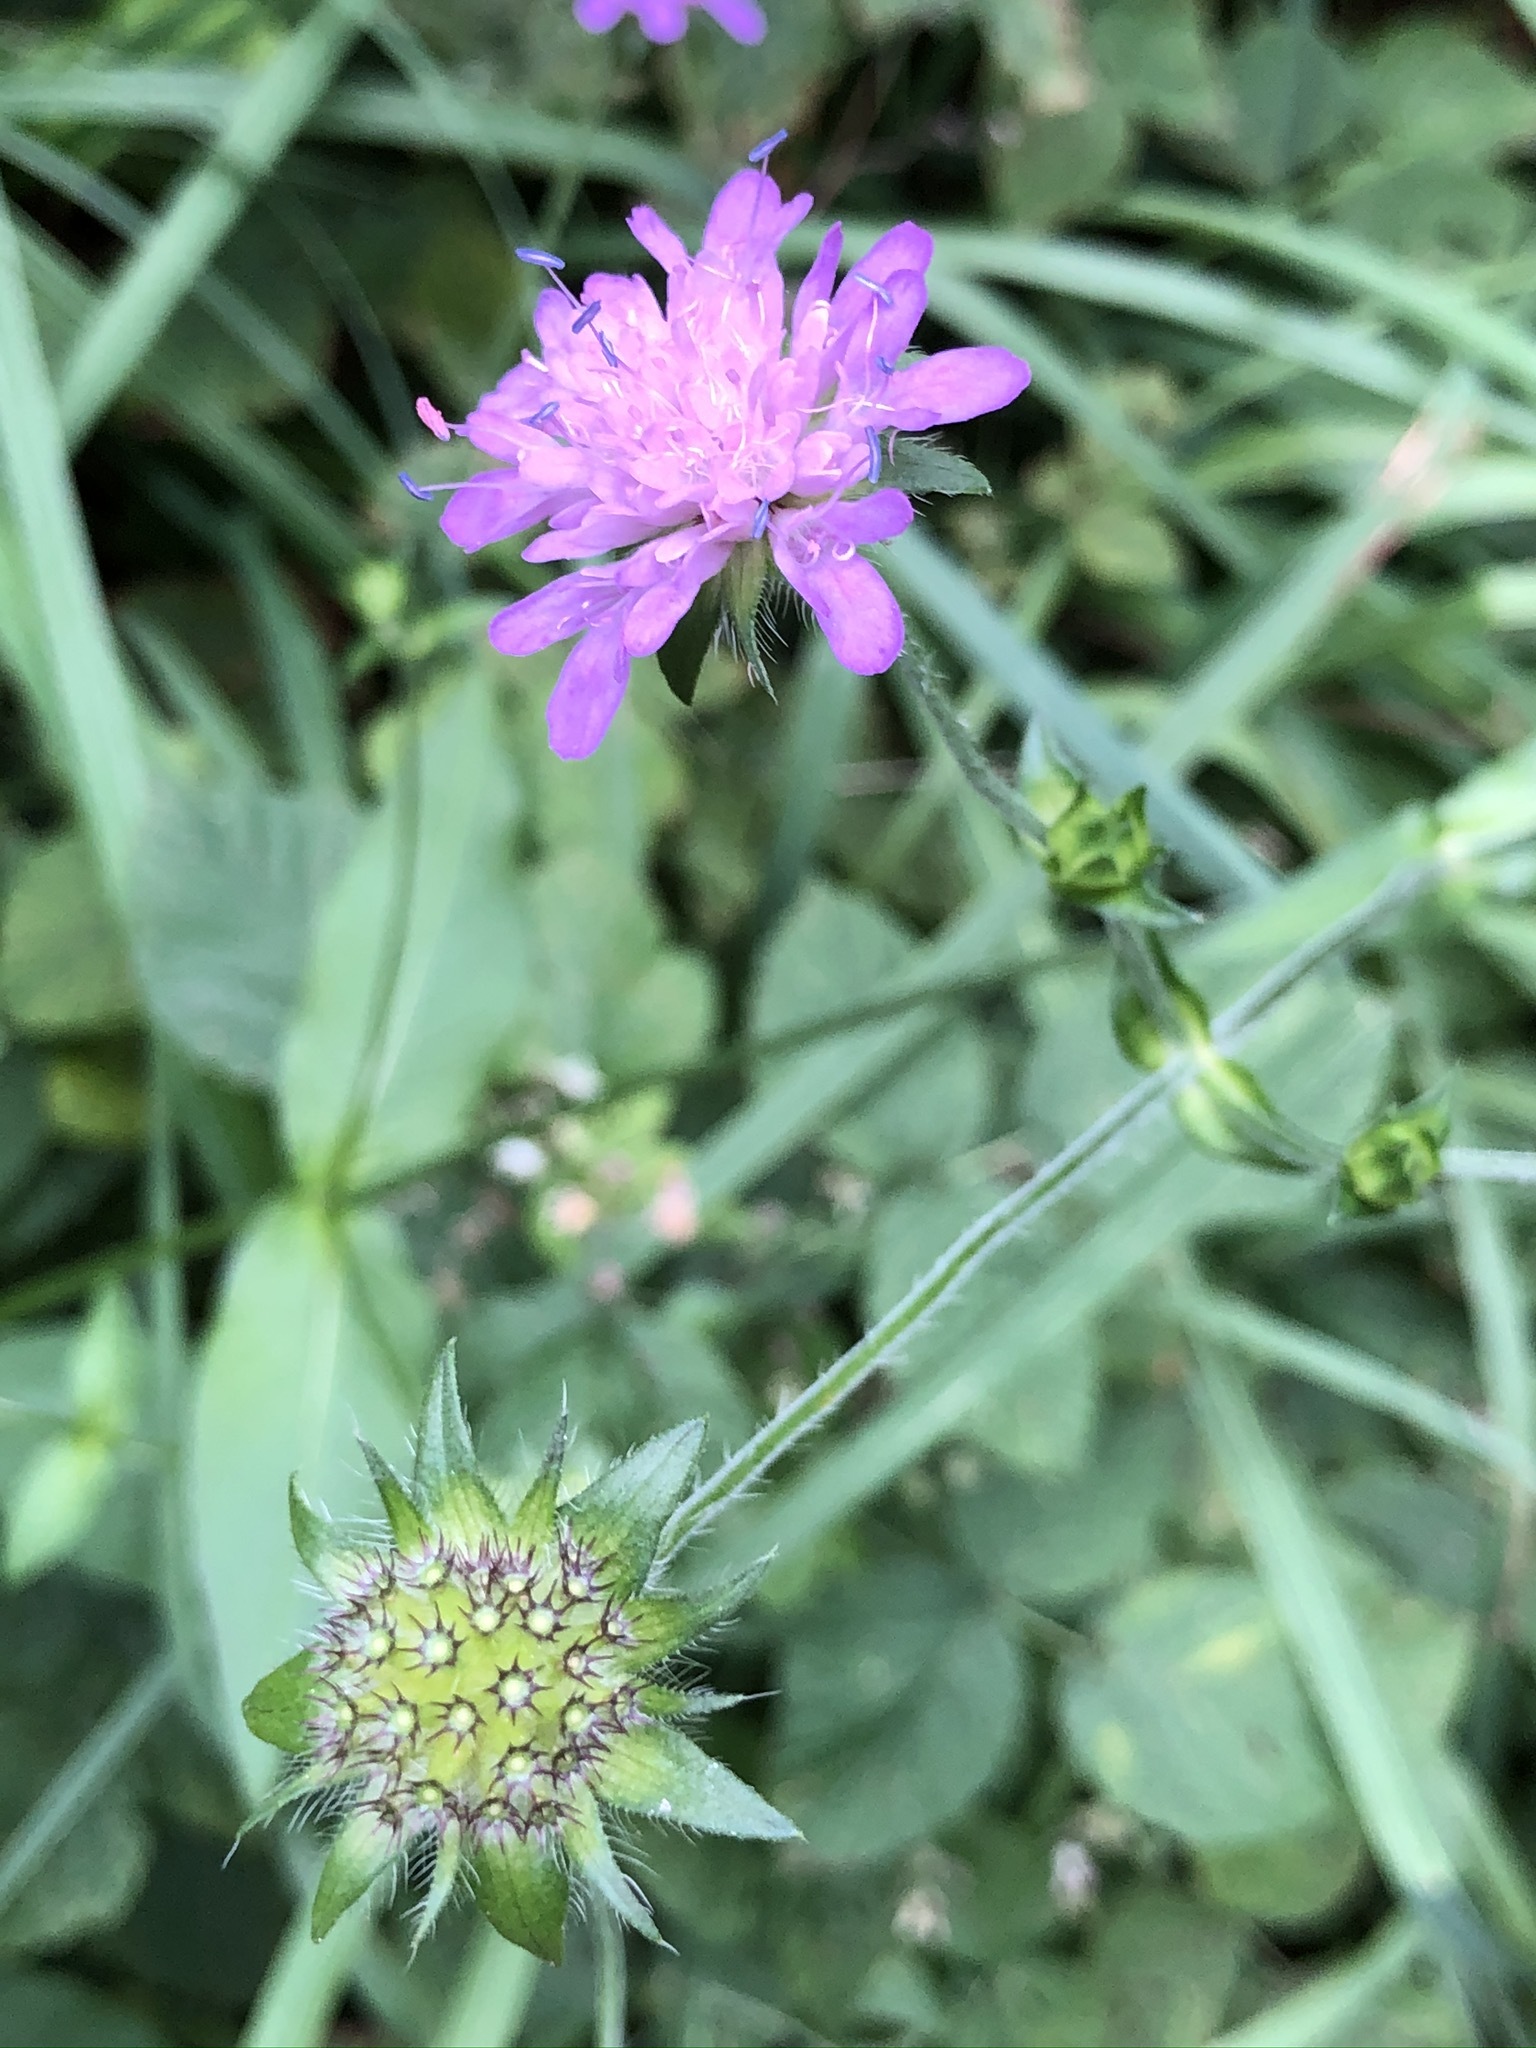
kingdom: Plantae
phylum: Tracheophyta
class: Magnoliopsida
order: Dipsacales
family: Caprifoliaceae
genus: Knautia
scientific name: Knautia dipsacifolia
